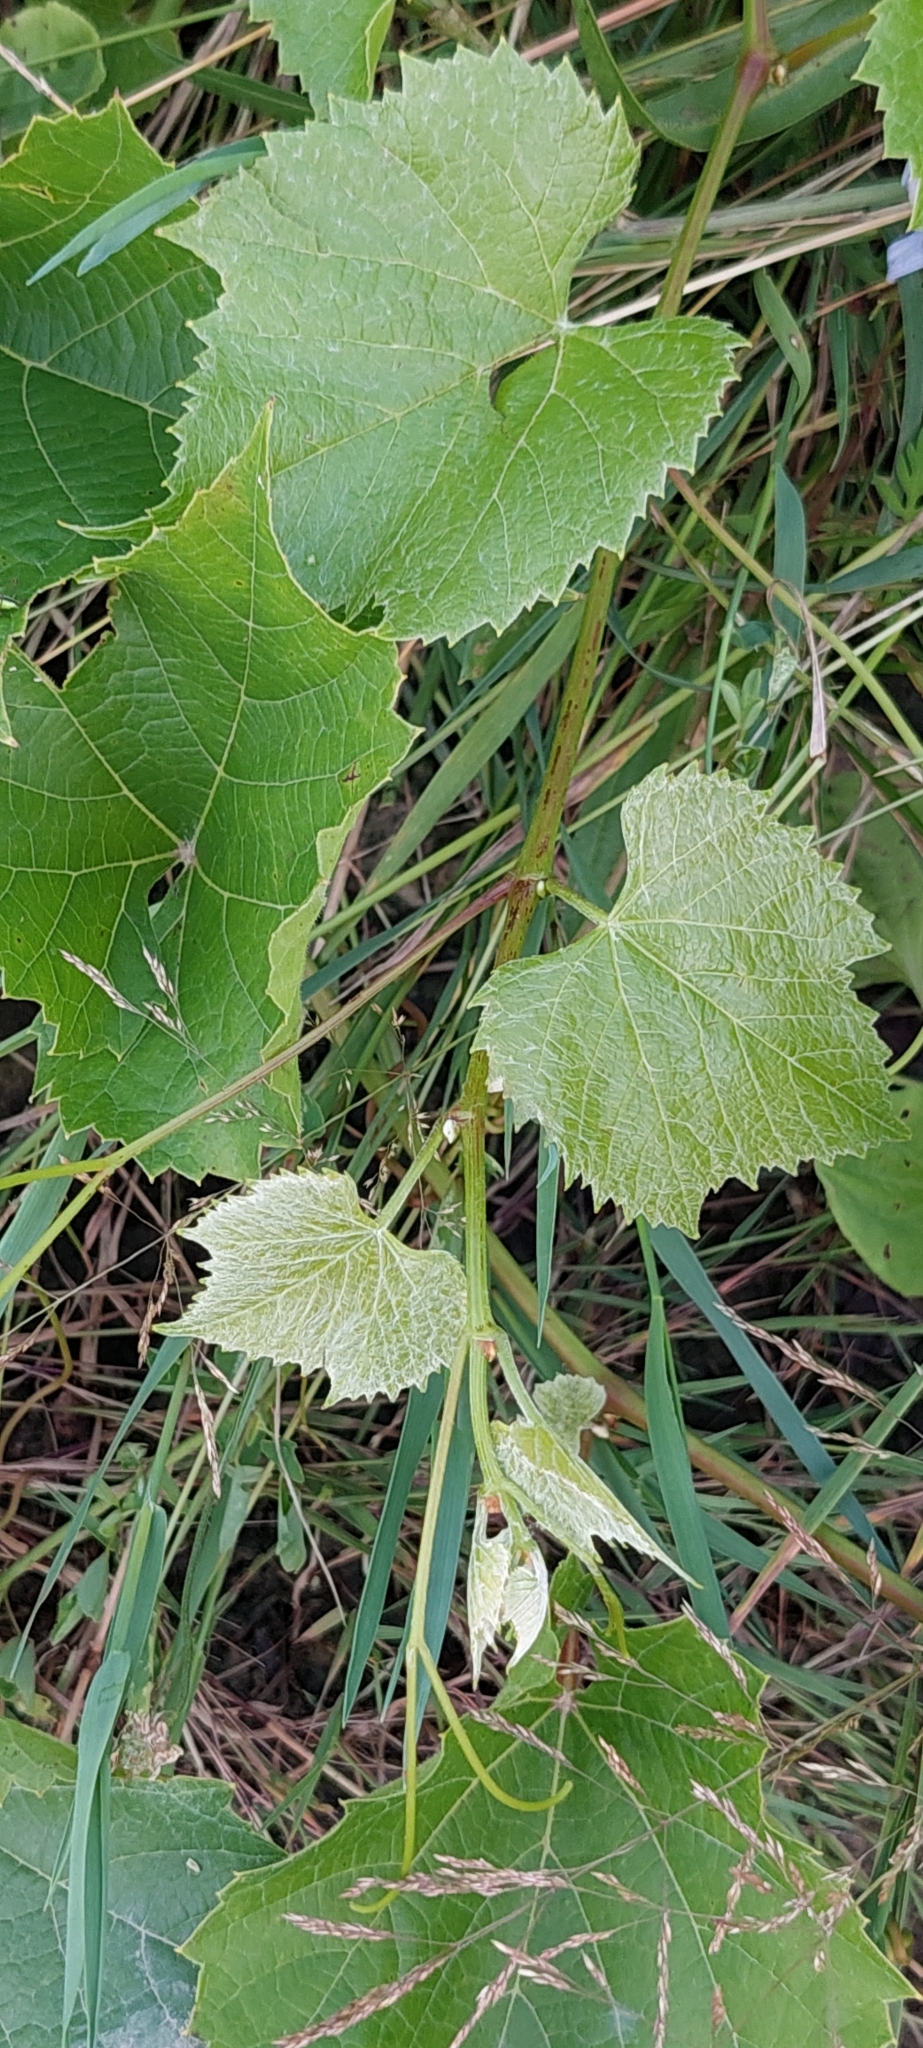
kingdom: Plantae
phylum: Tracheophyta
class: Magnoliopsida
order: Vitales
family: Vitaceae
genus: Vitis
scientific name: Vitis vinifera
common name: Grape-vine
